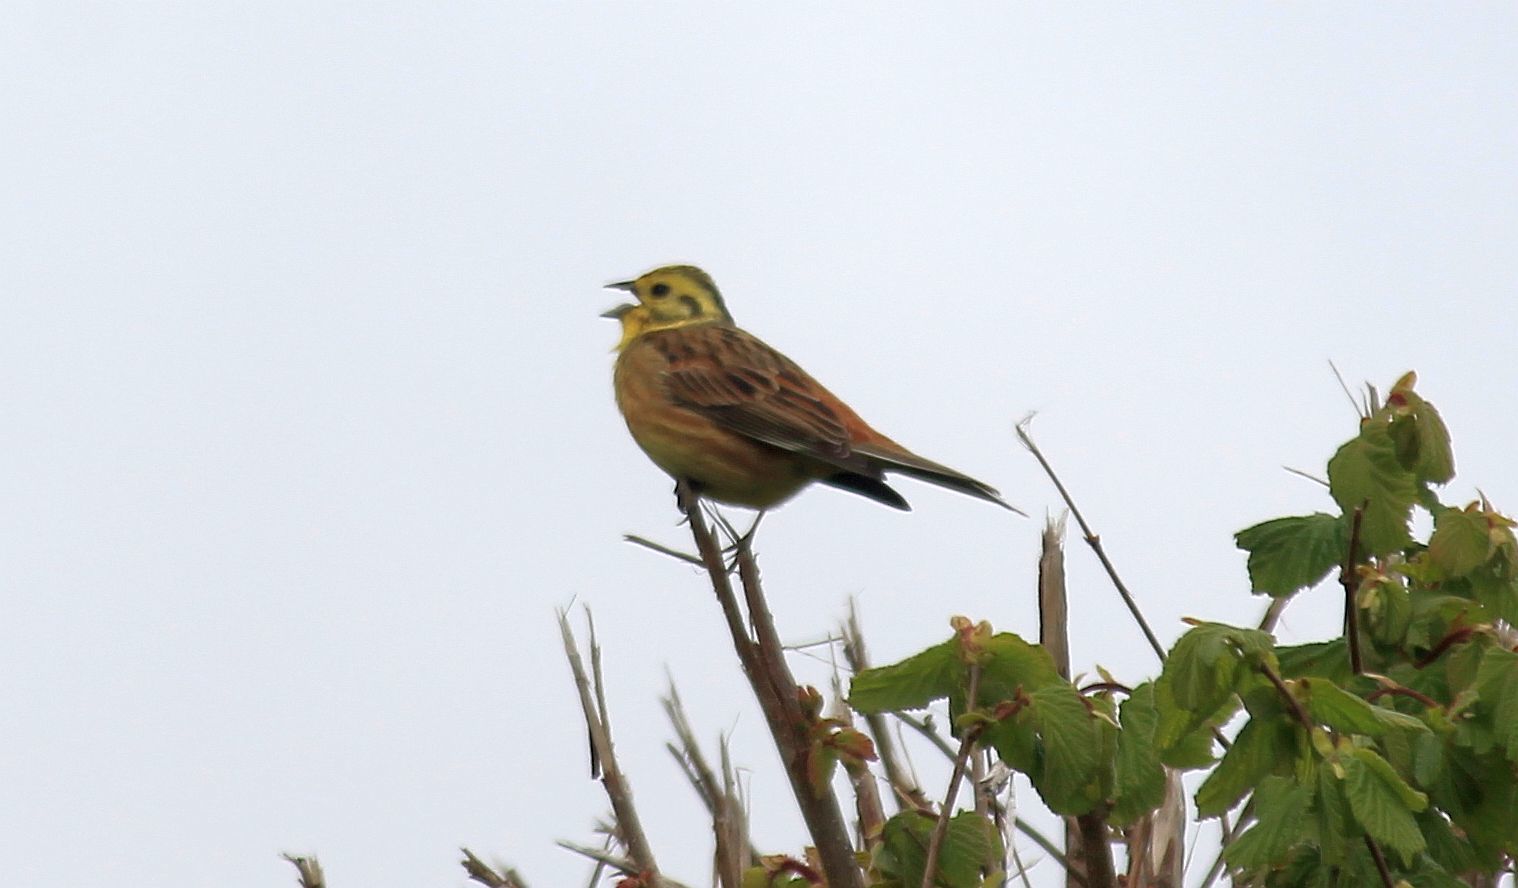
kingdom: Animalia
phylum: Chordata
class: Aves
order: Passeriformes
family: Emberizidae
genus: Emberiza
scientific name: Emberiza citrinella
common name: Yellowhammer
